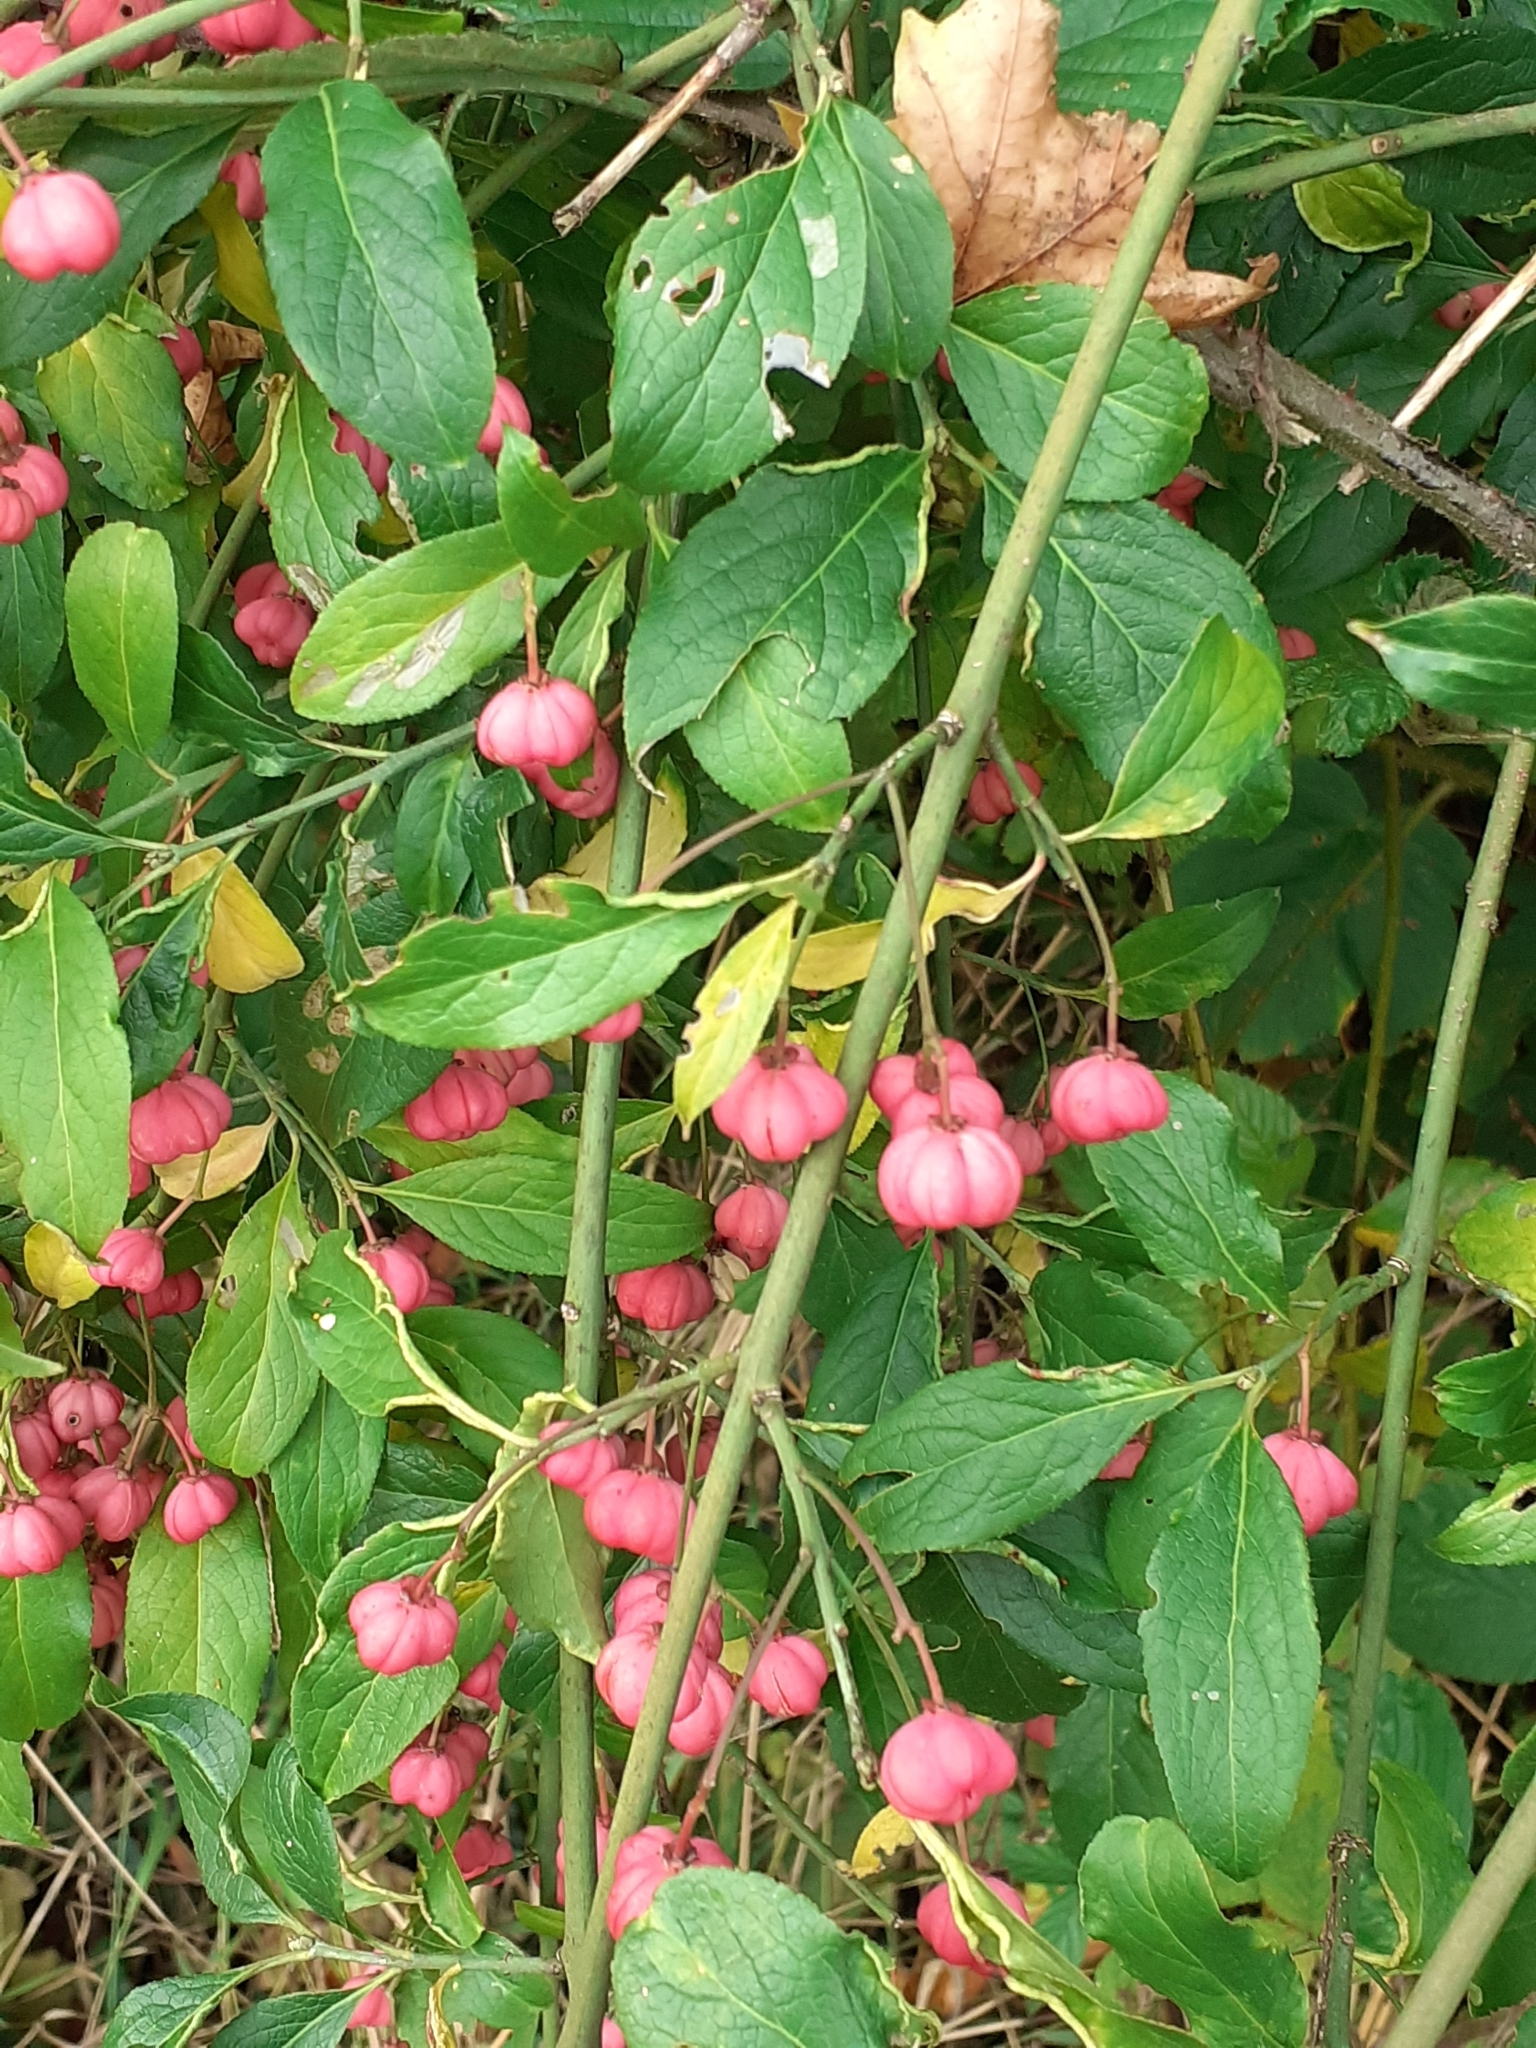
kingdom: Plantae
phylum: Tracheophyta
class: Magnoliopsida
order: Celastrales
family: Celastraceae
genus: Euonymus
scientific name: Euonymus europaeus
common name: Spindle
